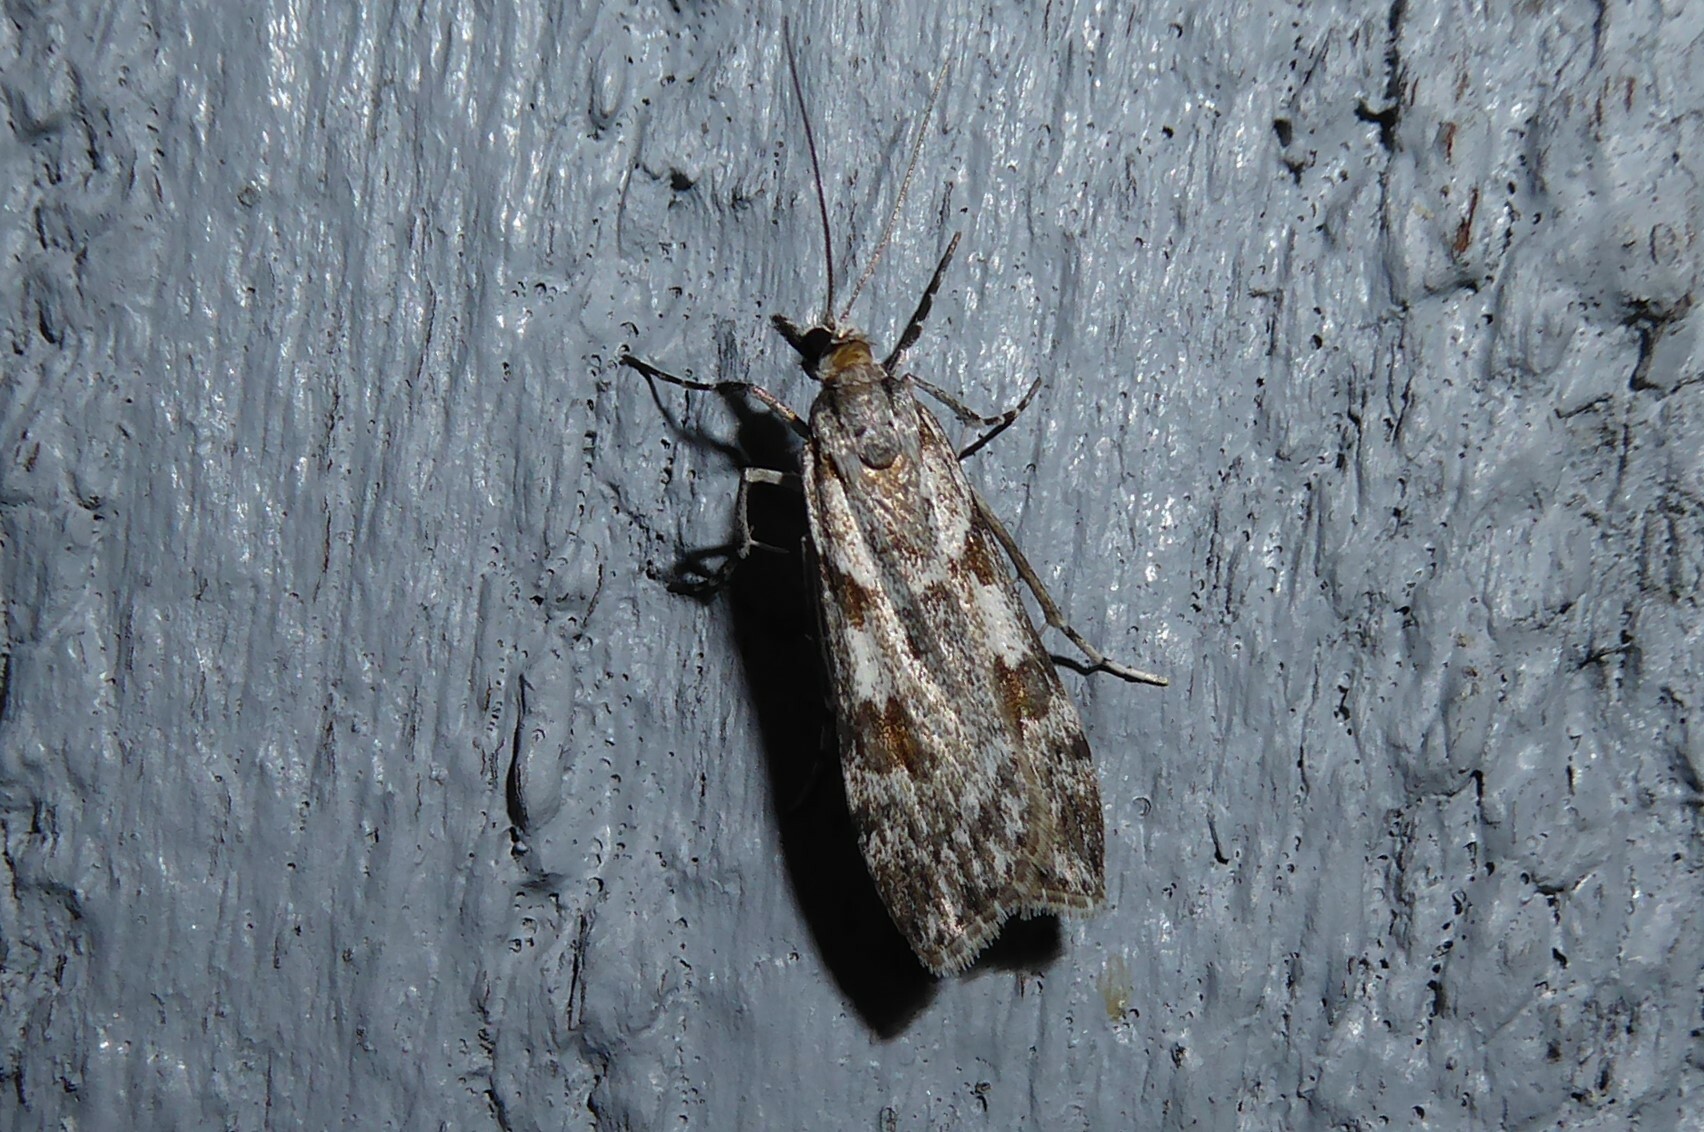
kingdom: Animalia
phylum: Arthropoda
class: Insecta
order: Lepidoptera
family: Crambidae
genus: Scoparia
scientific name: Scoparia halopis
